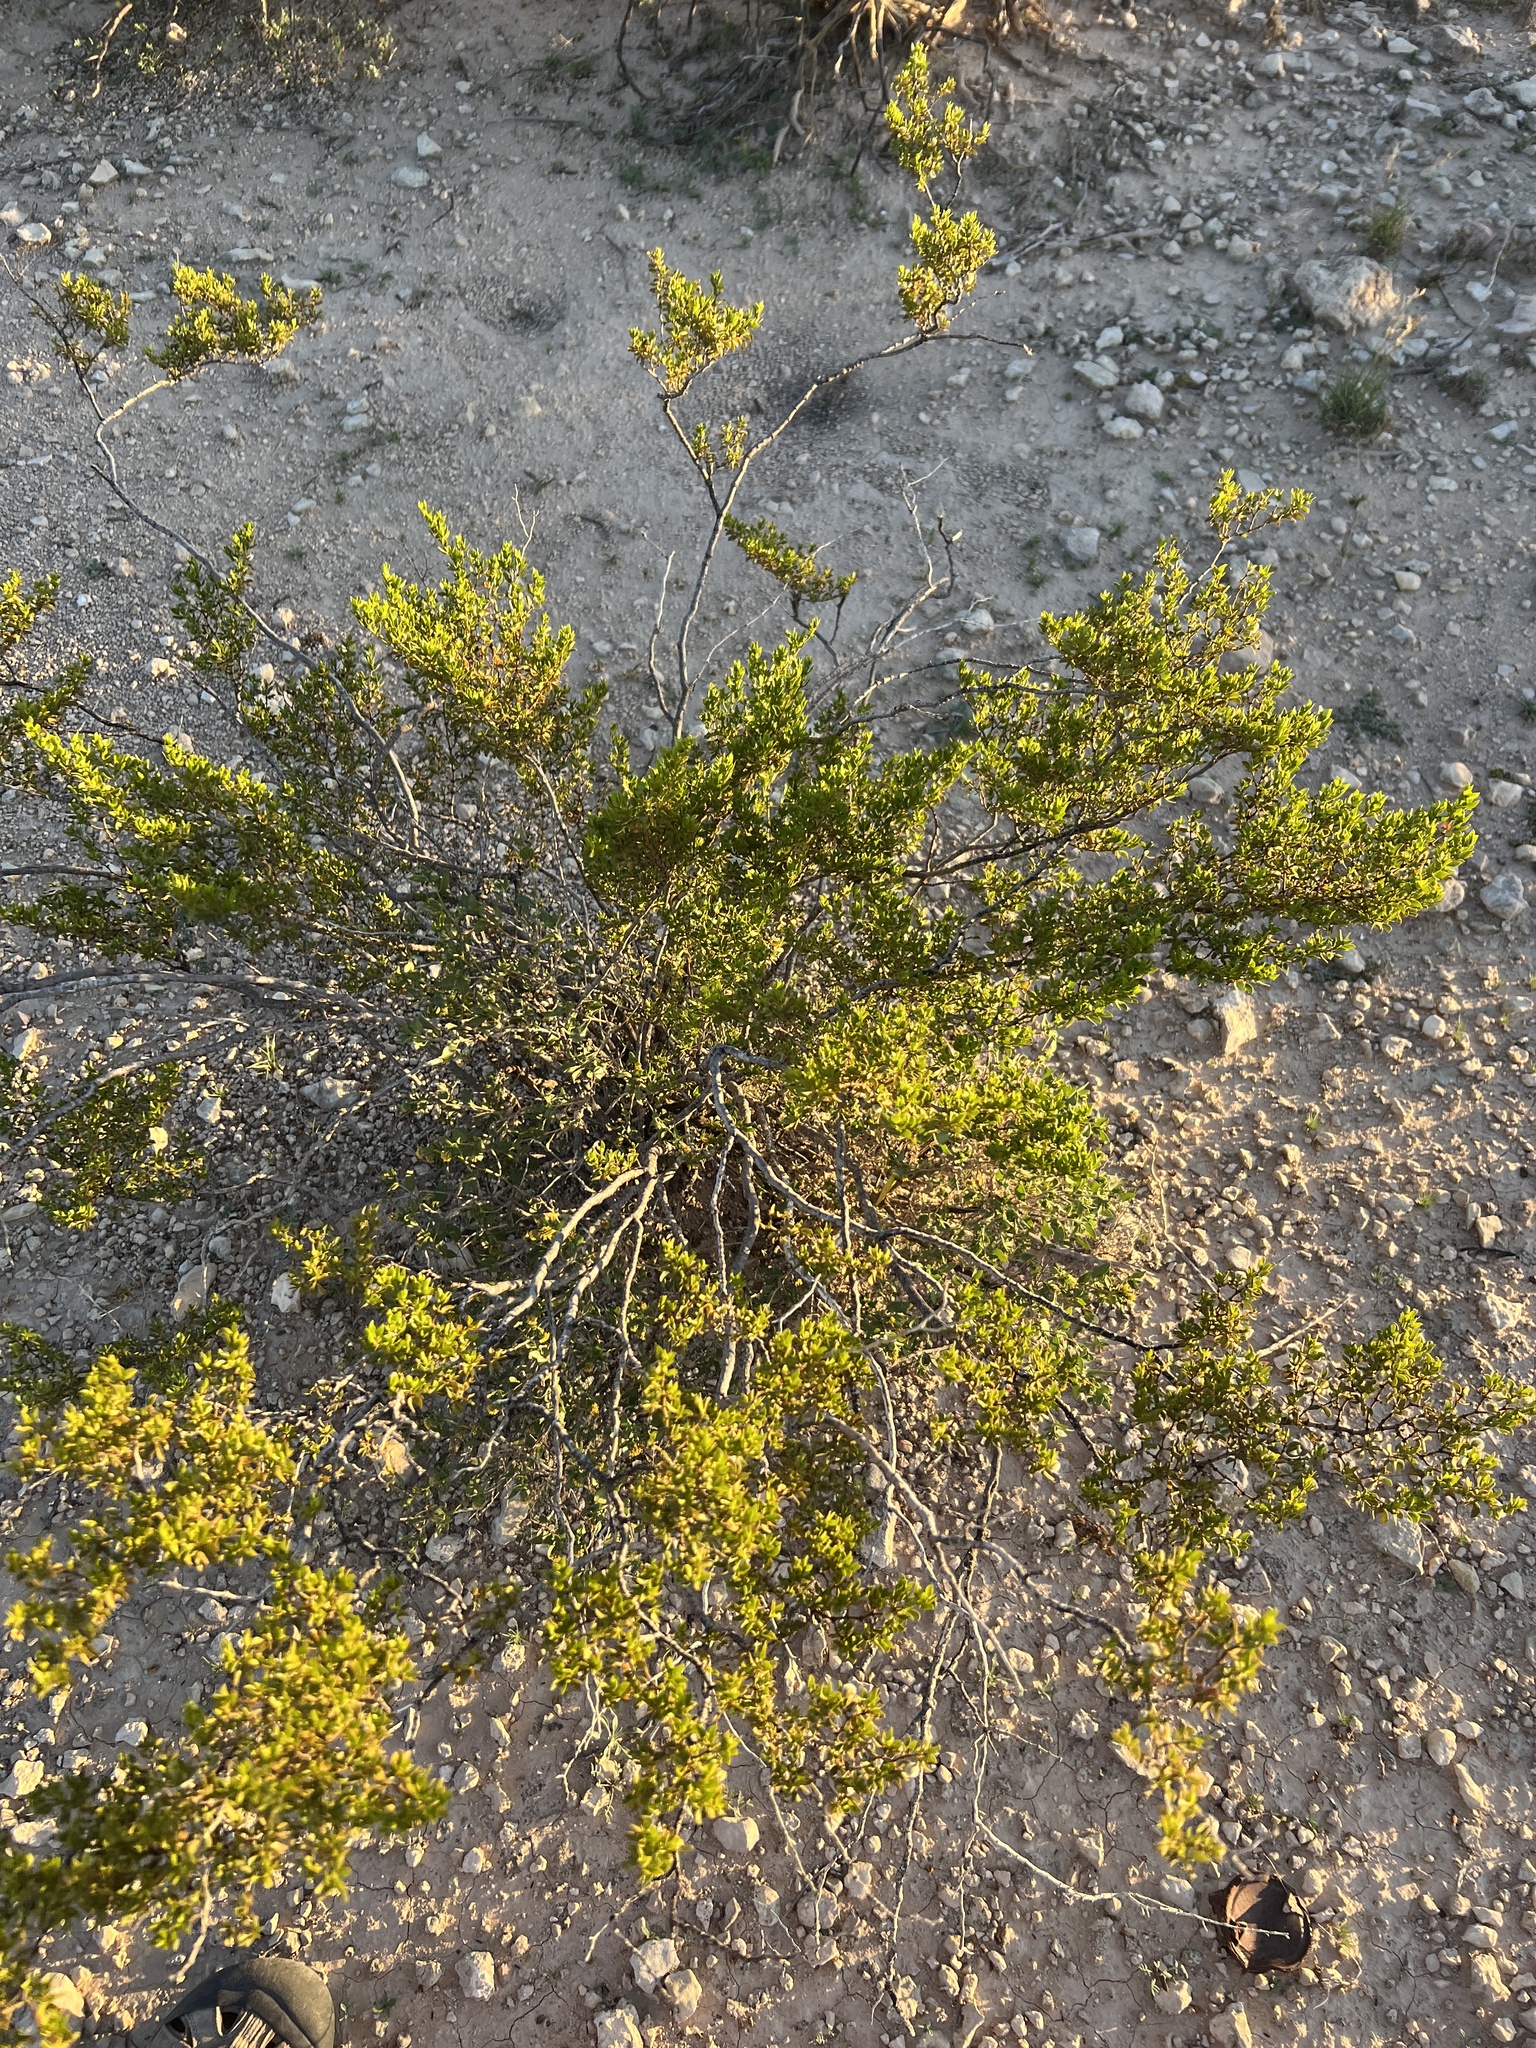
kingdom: Plantae
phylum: Tracheophyta
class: Magnoliopsida
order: Zygophyllales
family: Zygophyllaceae
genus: Larrea
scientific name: Larrea tridentata
